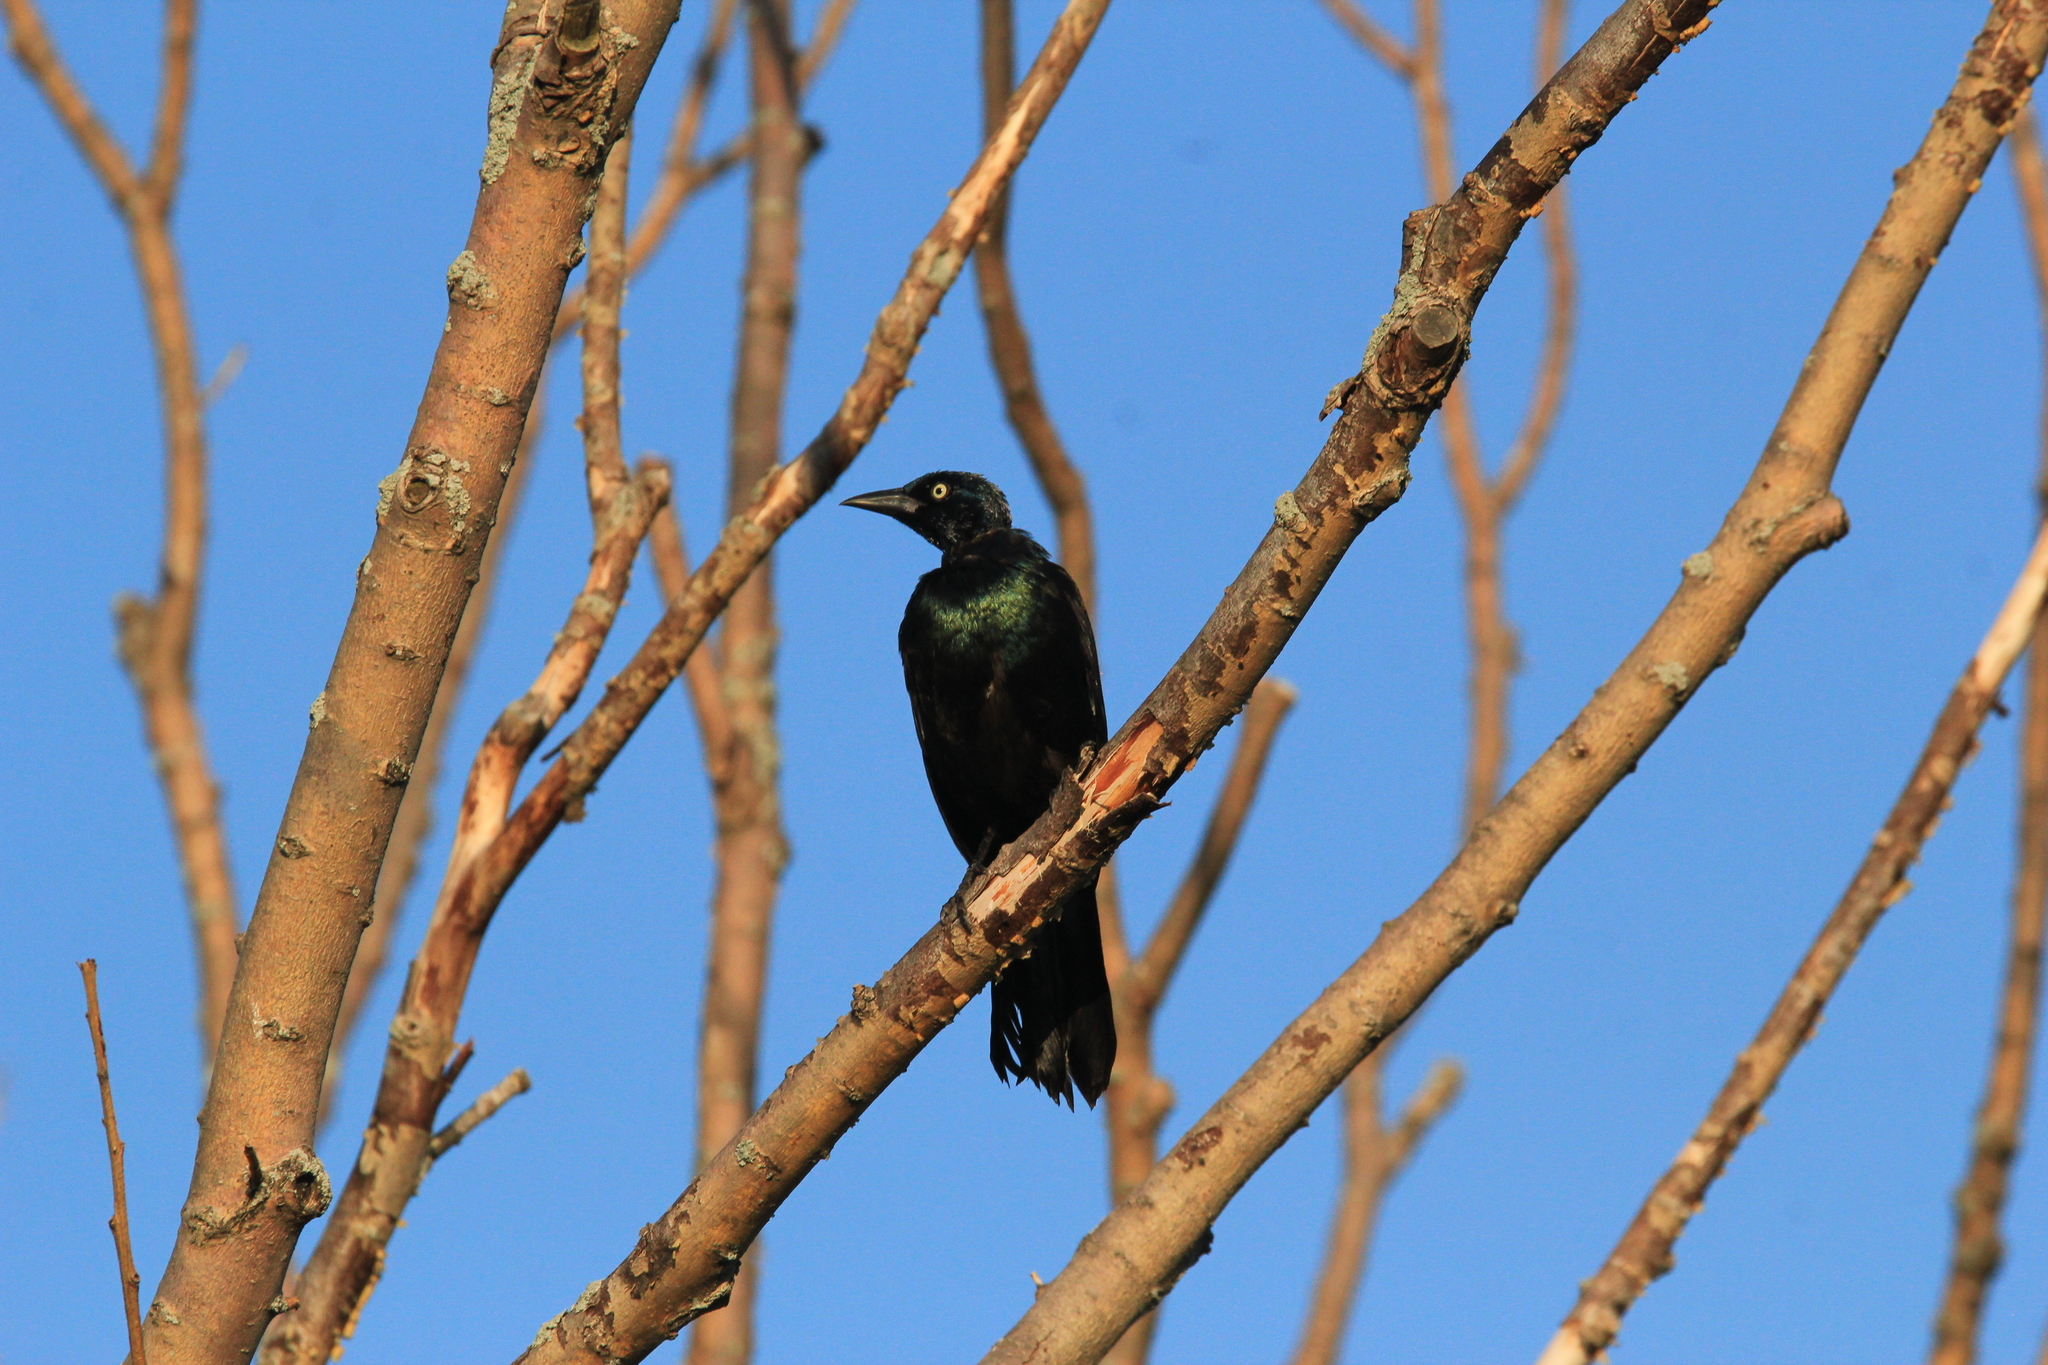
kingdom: Animalia
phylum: Chordata
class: Aves
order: Passeriformes
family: Icteridae
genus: Quiscalus
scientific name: Quiscalus quiscula
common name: Common grackle
